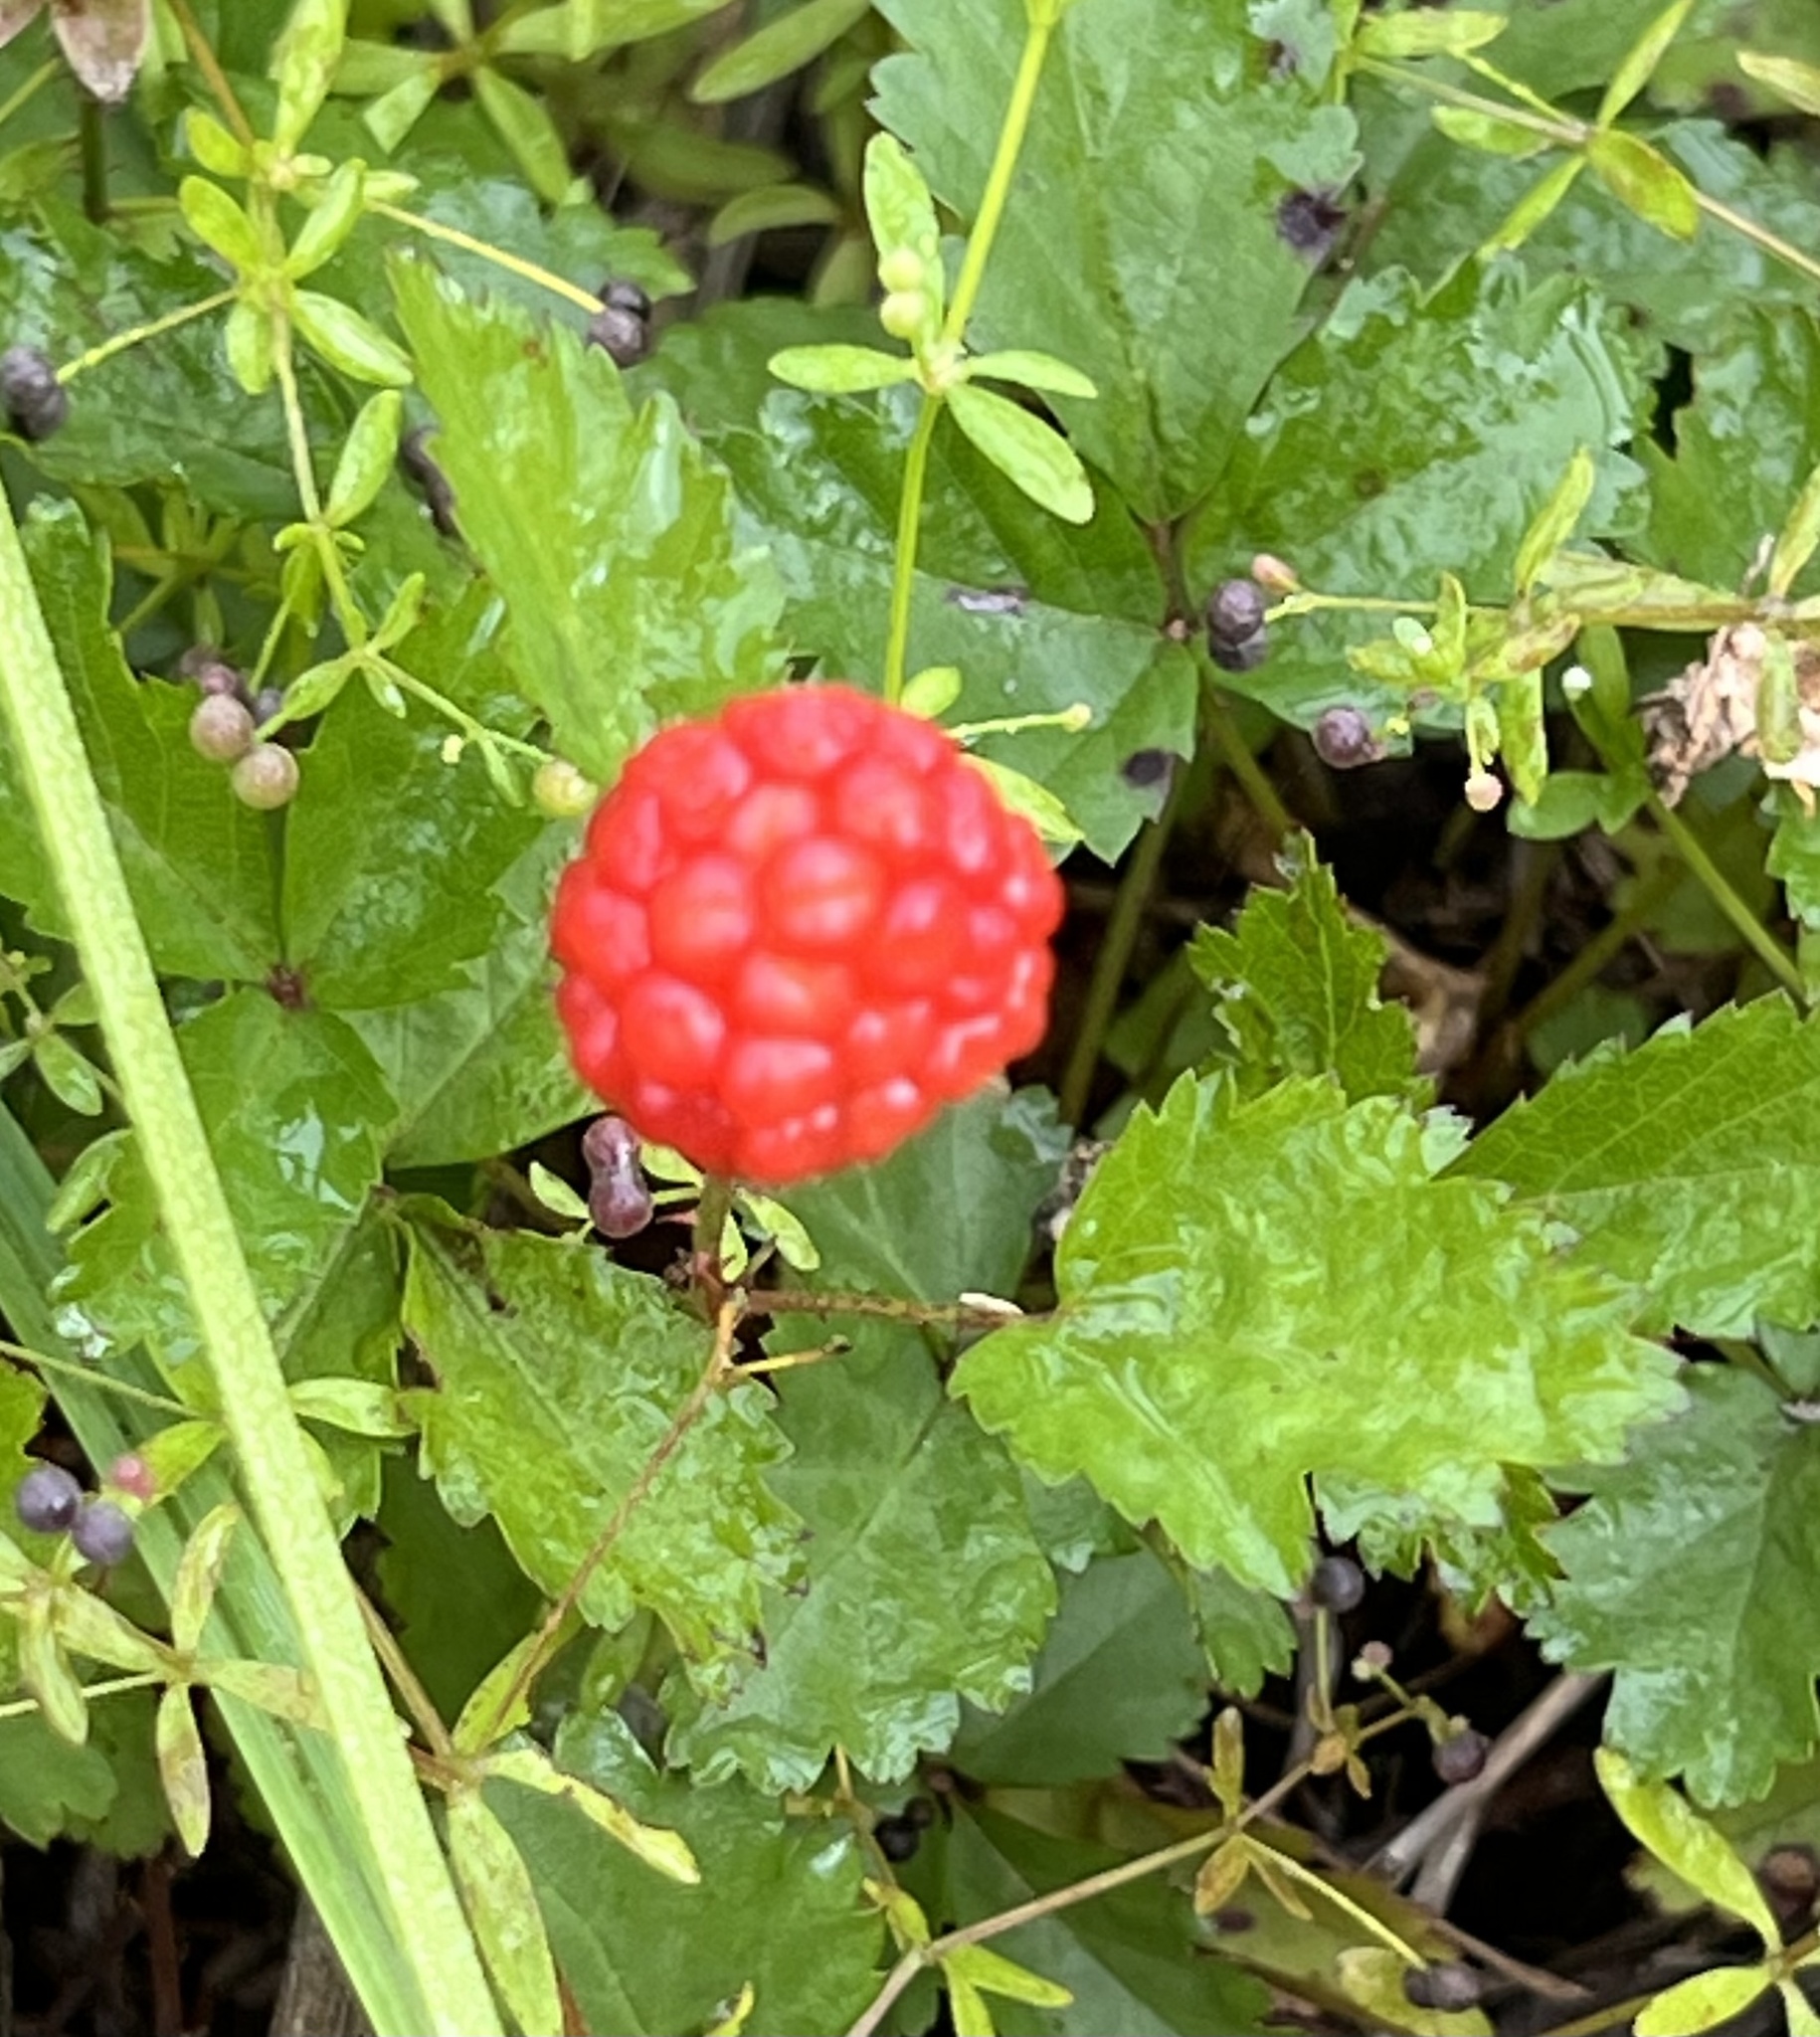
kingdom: Plantae
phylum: Tracheophyta
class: Magnoliopsida
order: Rosales
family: Rosaceae
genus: Rubus
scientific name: Rubus trivialis
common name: Southern dewberry
